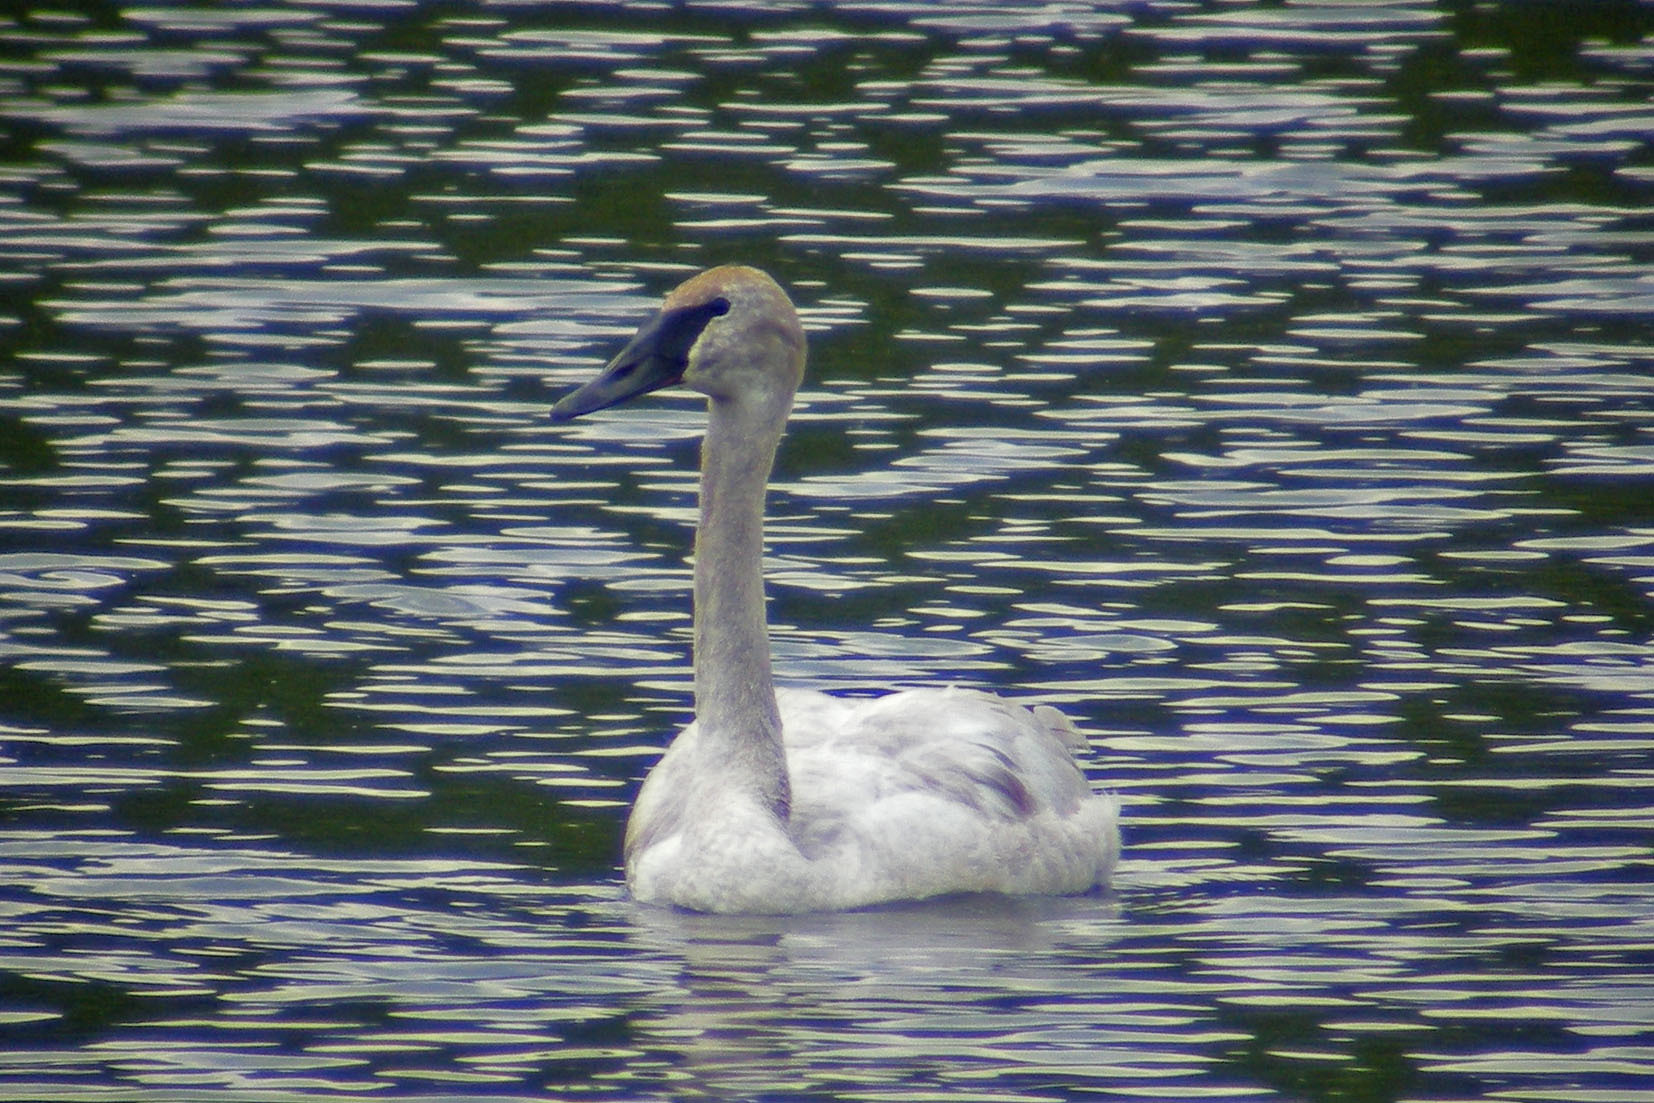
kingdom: Animalia
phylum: Chordata
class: Aves
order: Anseriformes
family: Anatidae
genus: Cygnus
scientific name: Cygnus buccinator
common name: Trumpeter swan
